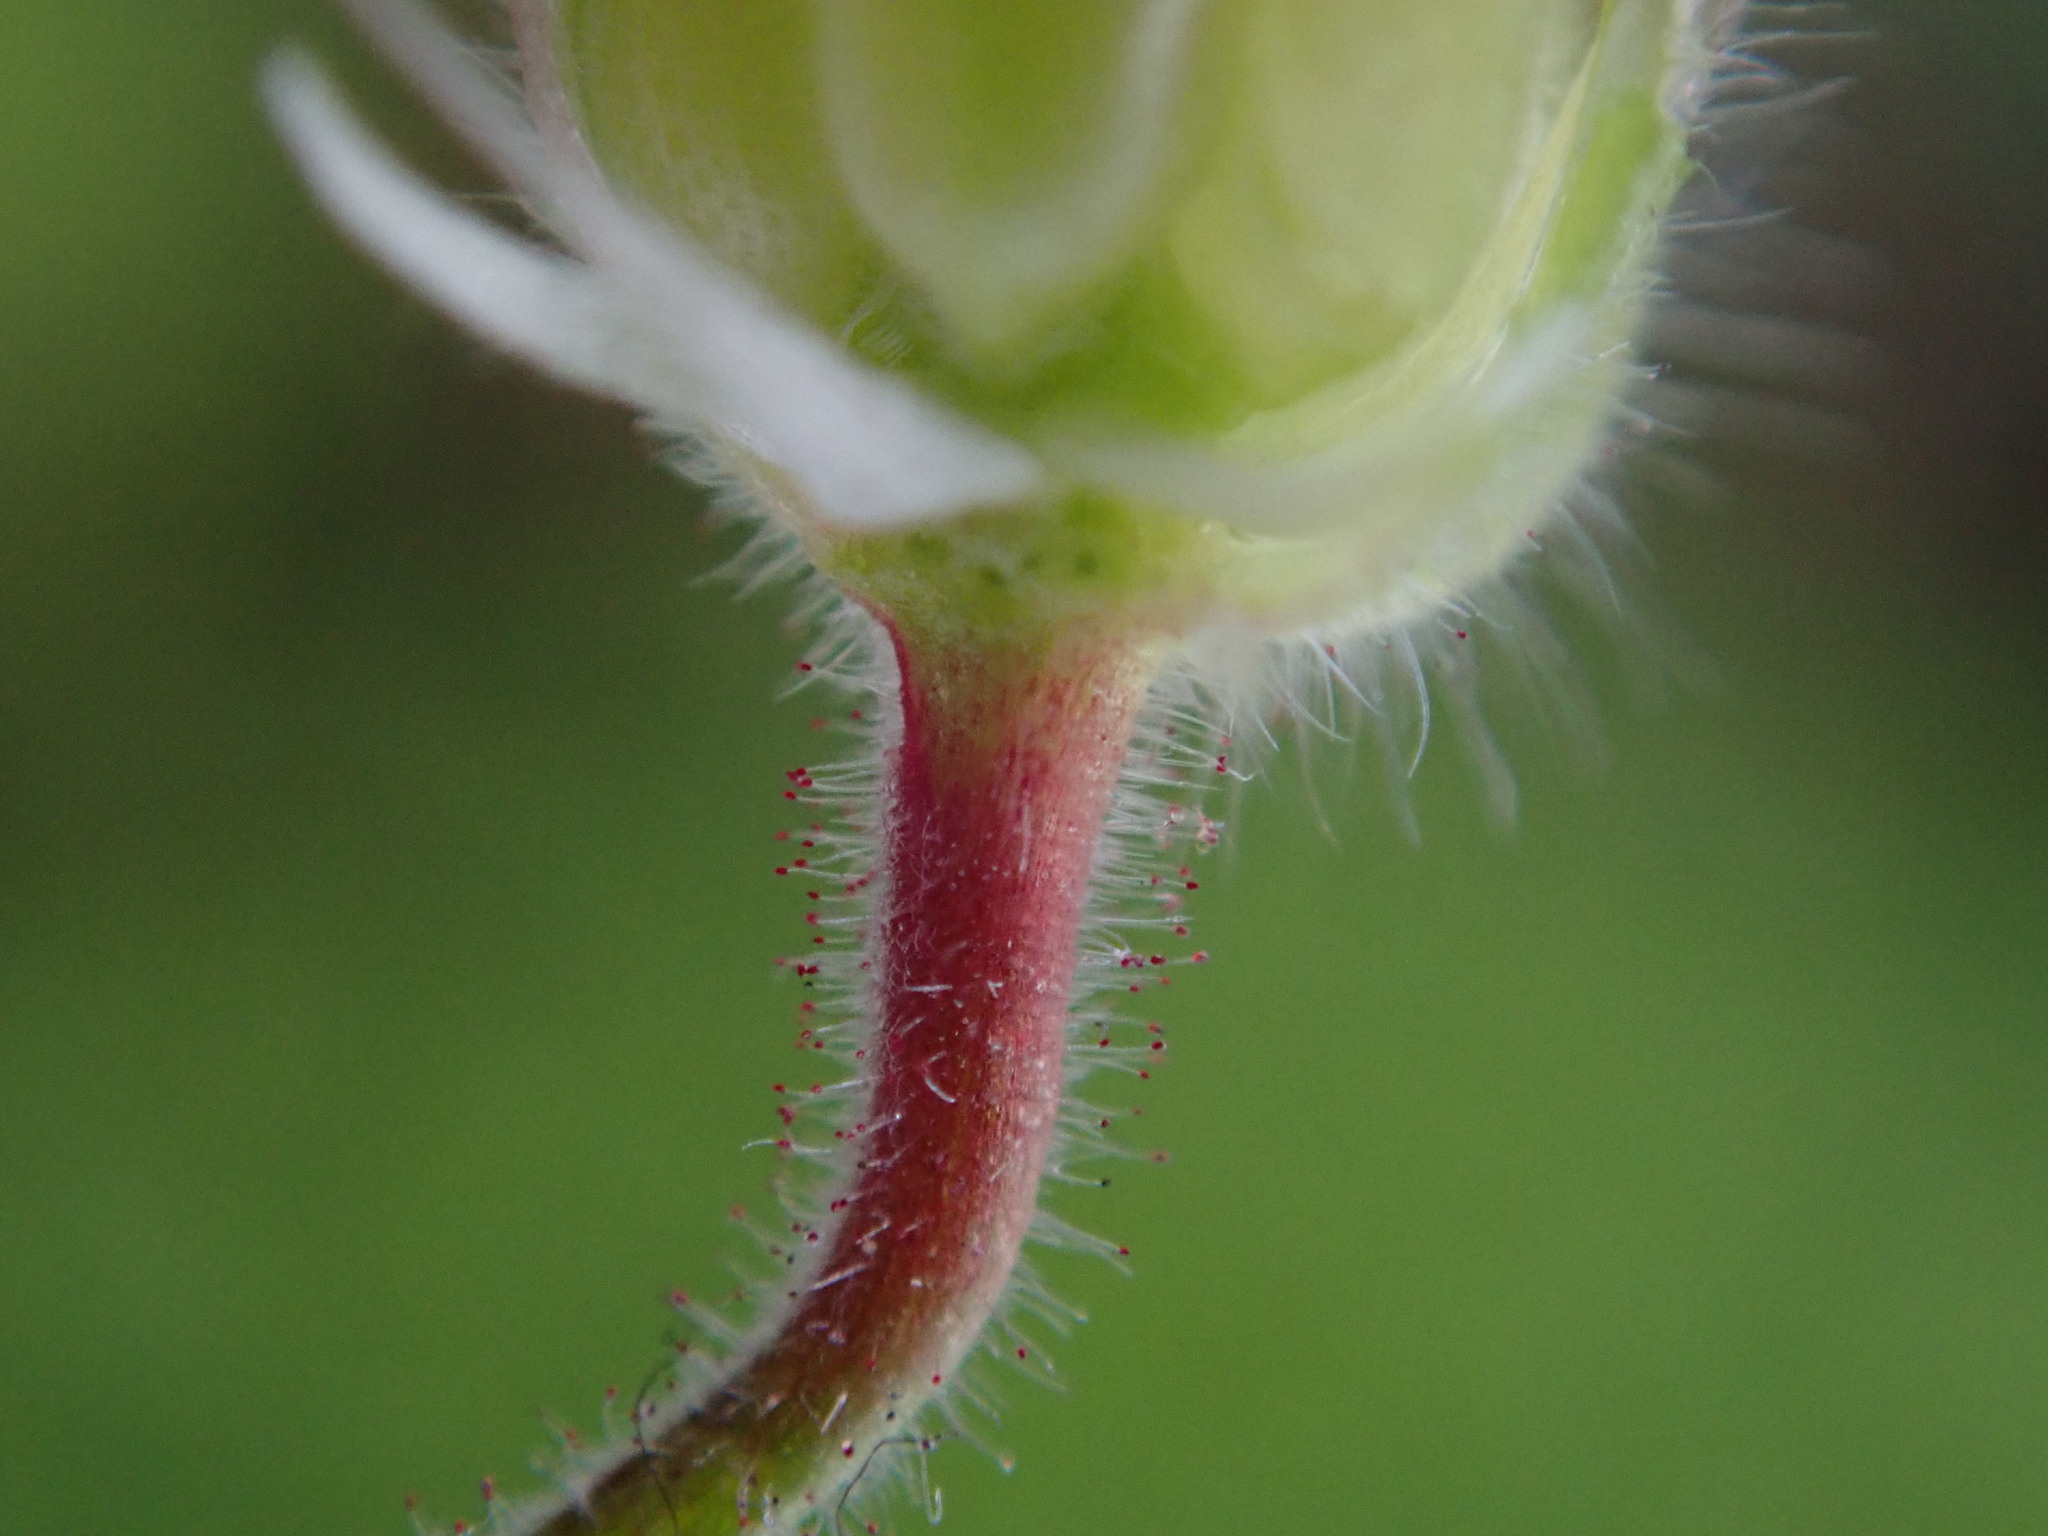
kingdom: Plantae
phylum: Tracheophyta
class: Magnoliopsida
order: Geraniales
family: Geraniaceae
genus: Geranium
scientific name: Geranium rotundifolium
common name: Round-leaved crane's-bill
